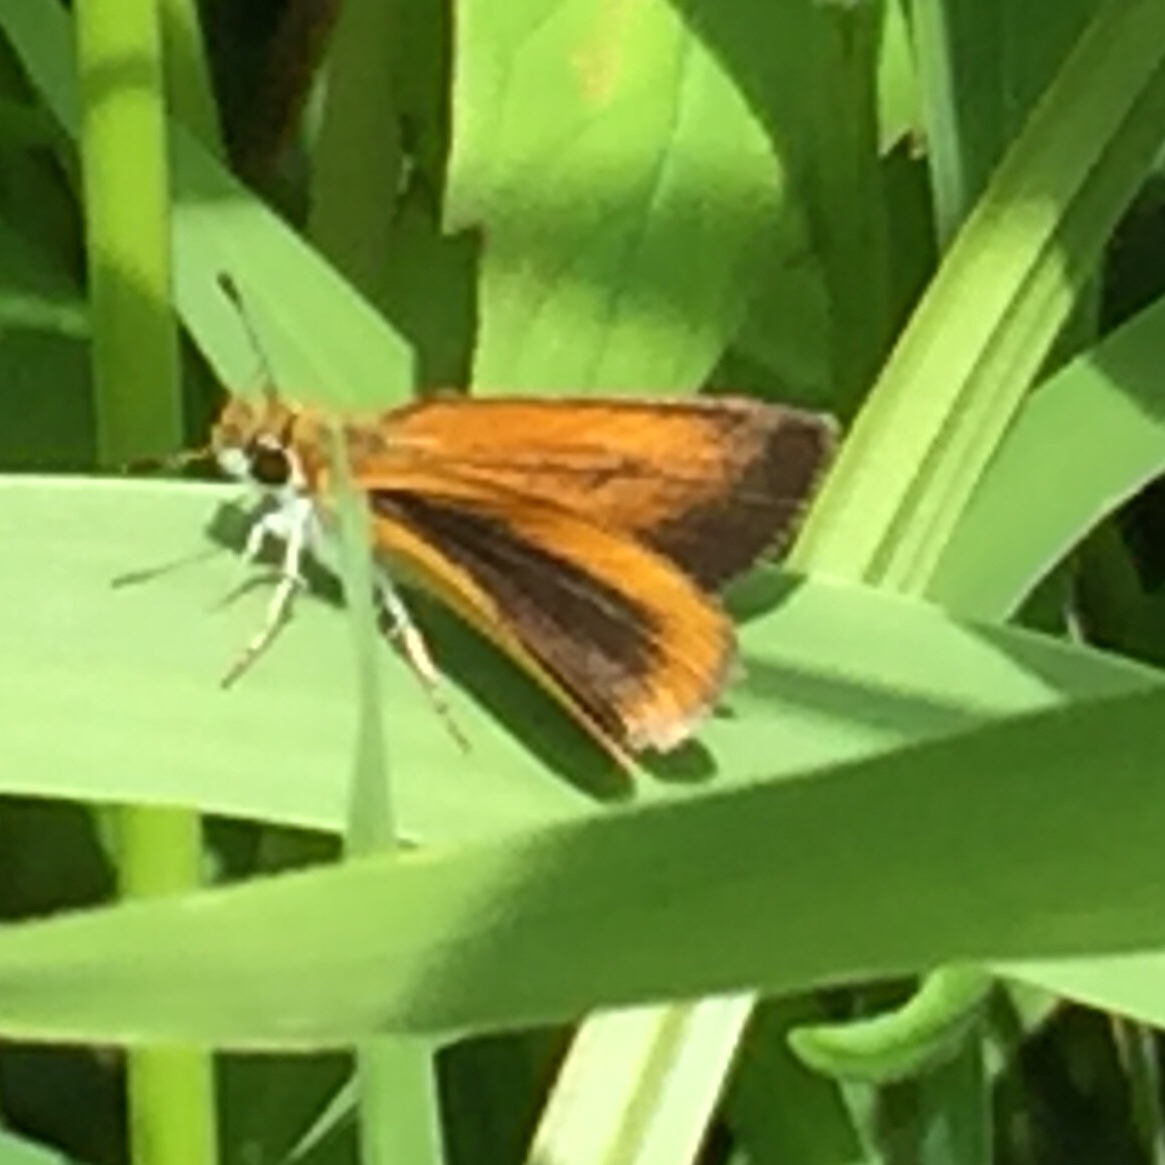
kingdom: Animalia
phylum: Arthropoda
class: Insecta
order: Lepidoptera
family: Hesperiidae
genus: Ancyloxypha
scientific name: Ancyloxypha numitor
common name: Least skipper
